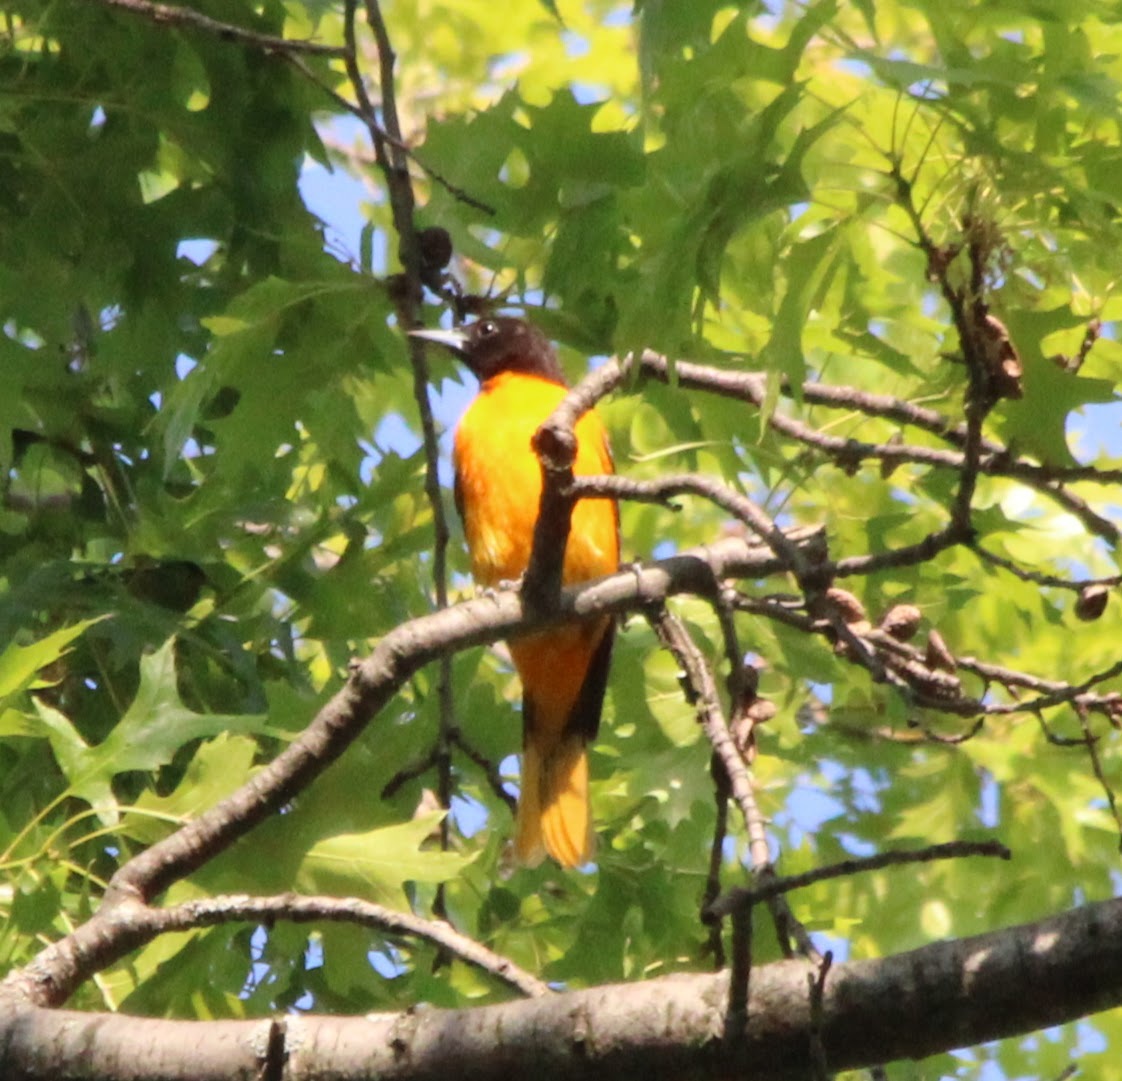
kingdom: Animalia
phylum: Chordata
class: Aves
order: Passeriformes
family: Icteridae
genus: Icterus
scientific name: Icterus galbula
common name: Baltimore oriole
